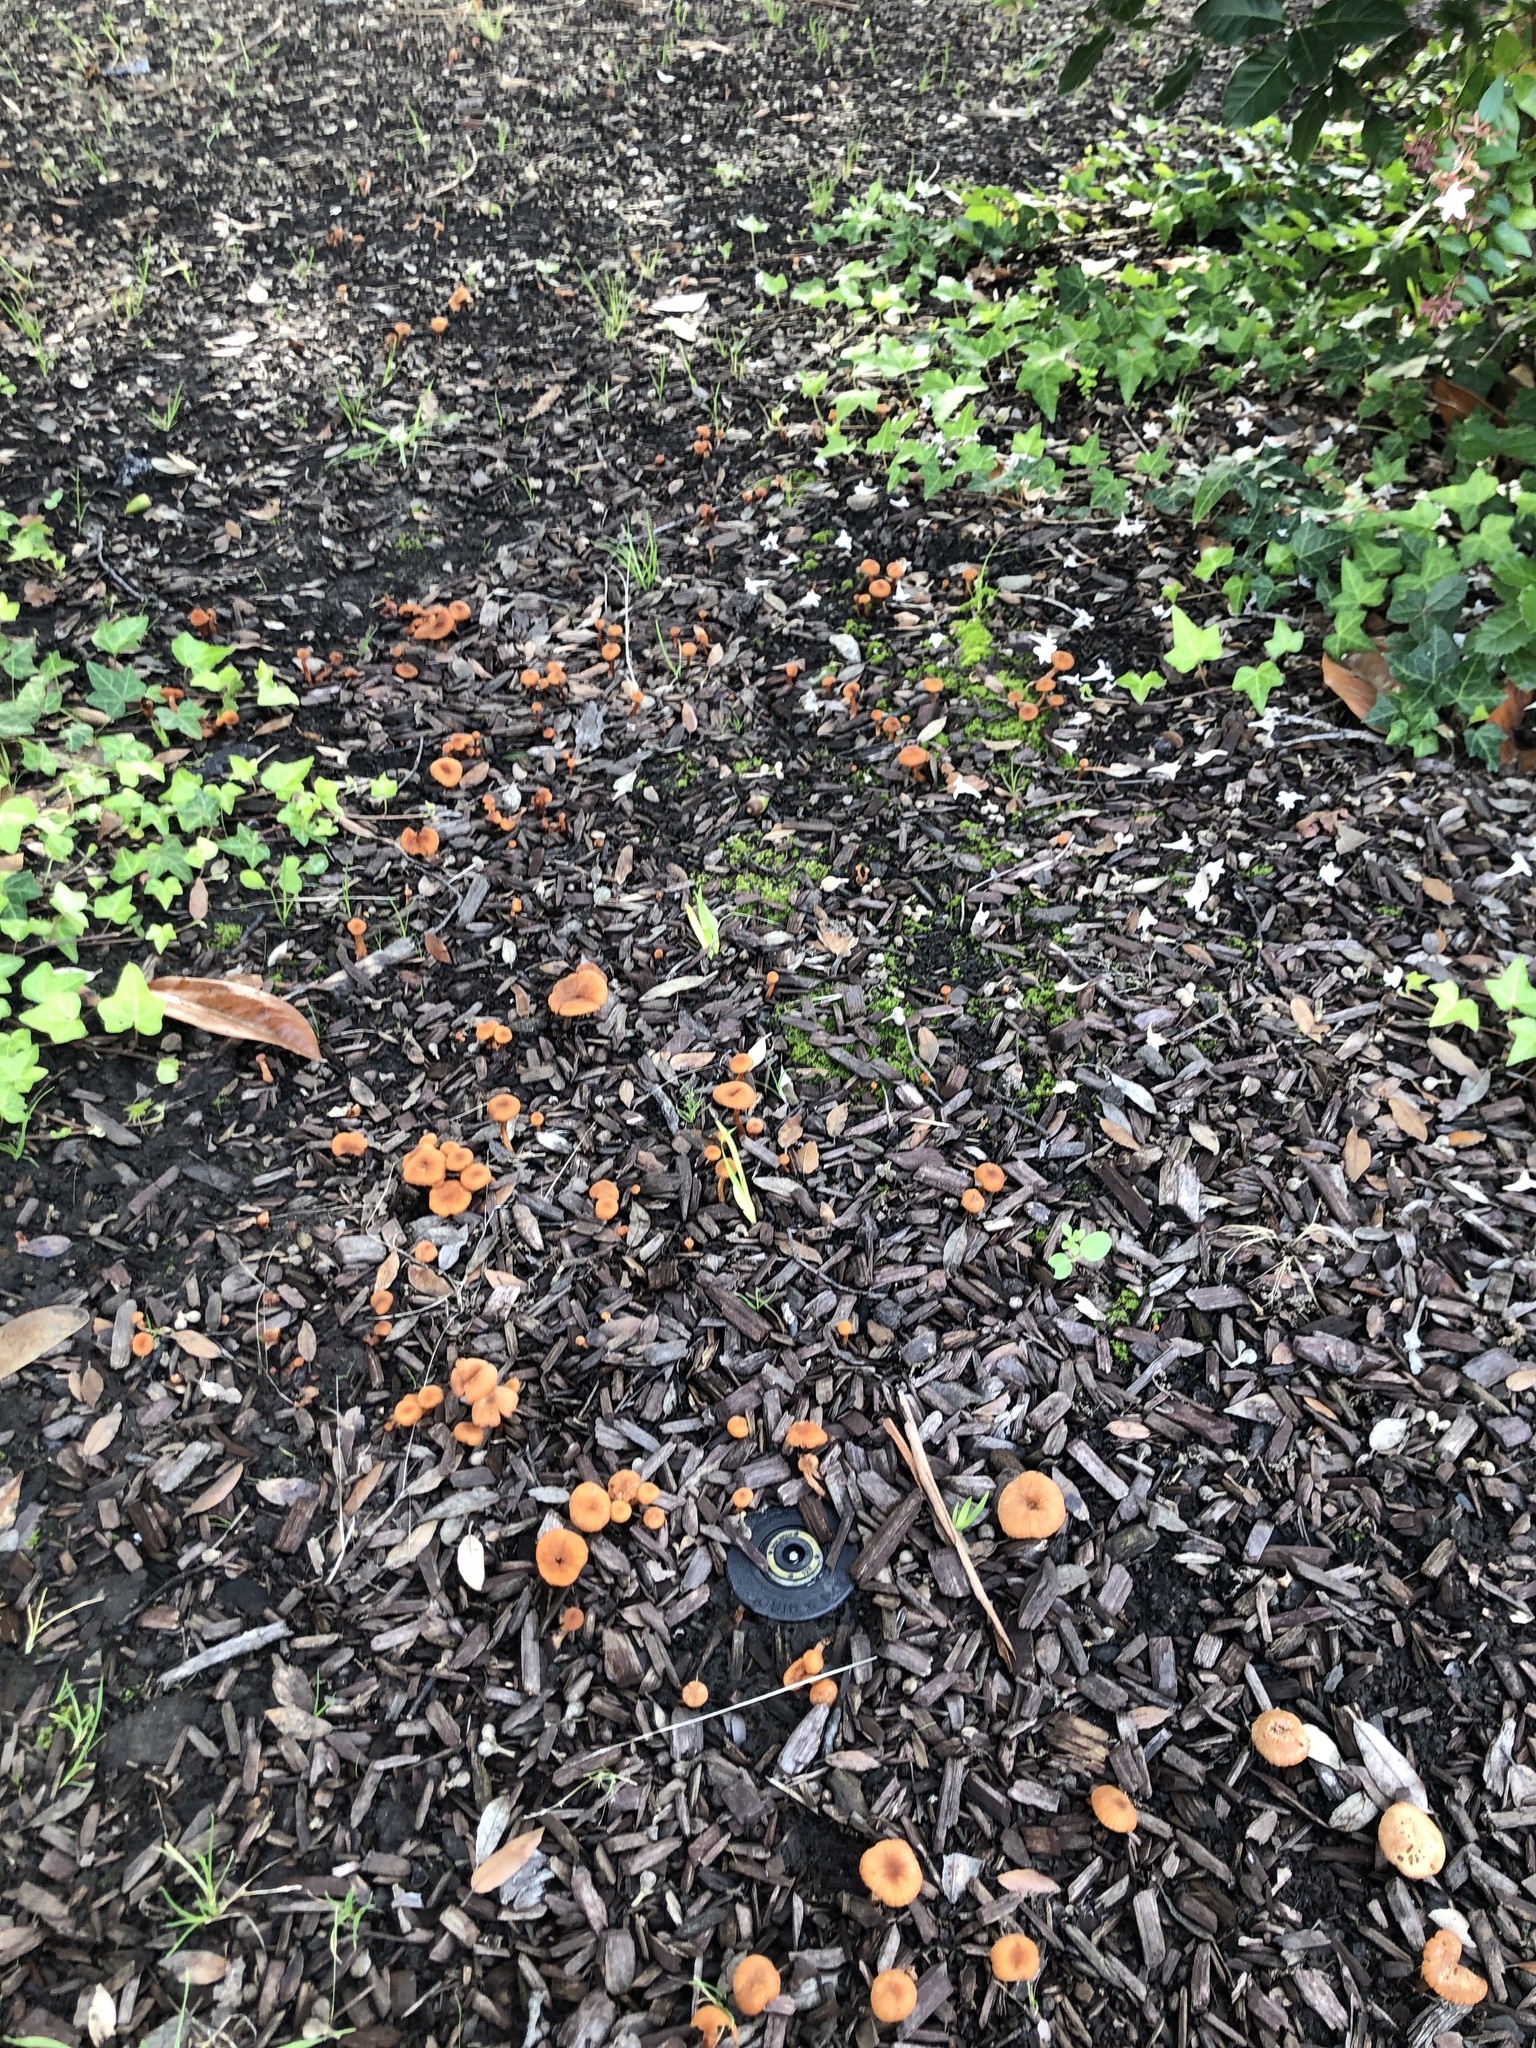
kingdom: Fungi
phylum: Basidiomycota
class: Agaricomycetes
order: Agaricales
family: Tubariaceae
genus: Tubaria
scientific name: Tubaria furfuracea
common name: Scurfy twiglet
